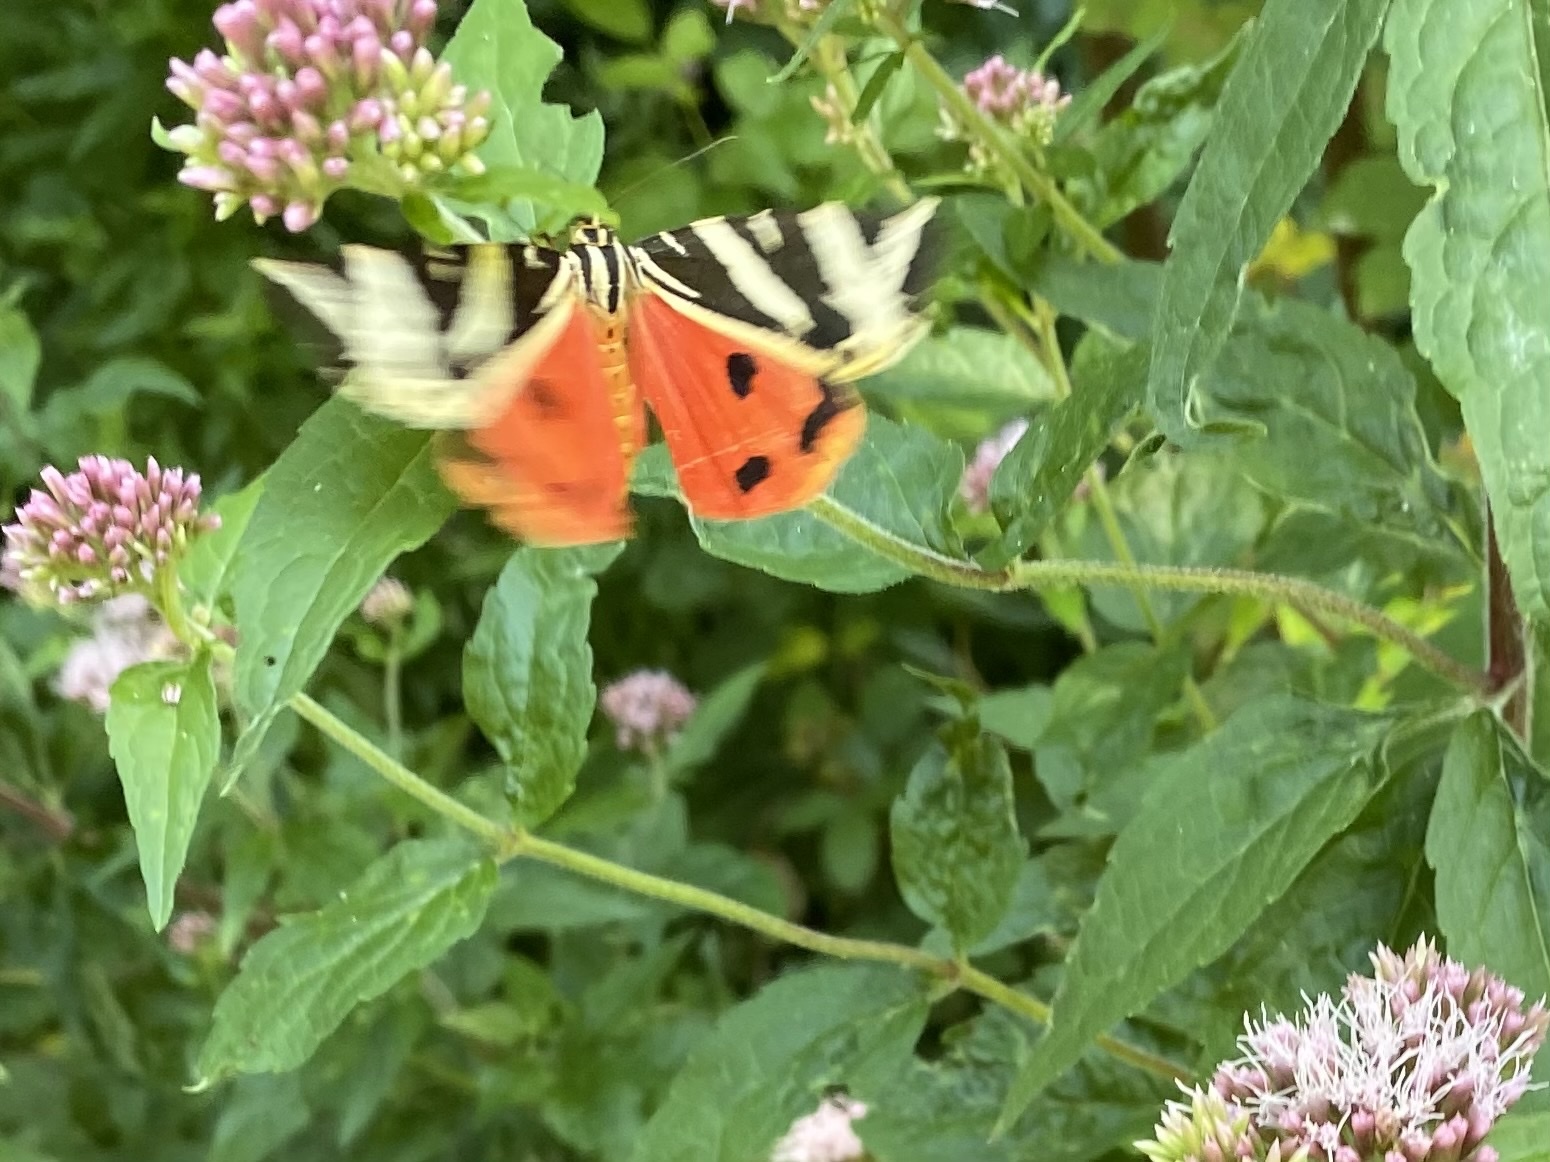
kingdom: Animalia
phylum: Arthropoda
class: Insecta
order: Lepidoptera
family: Erebidae
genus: Euplagia
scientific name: Euplagia quadripunctaria
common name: Jersey tiger
